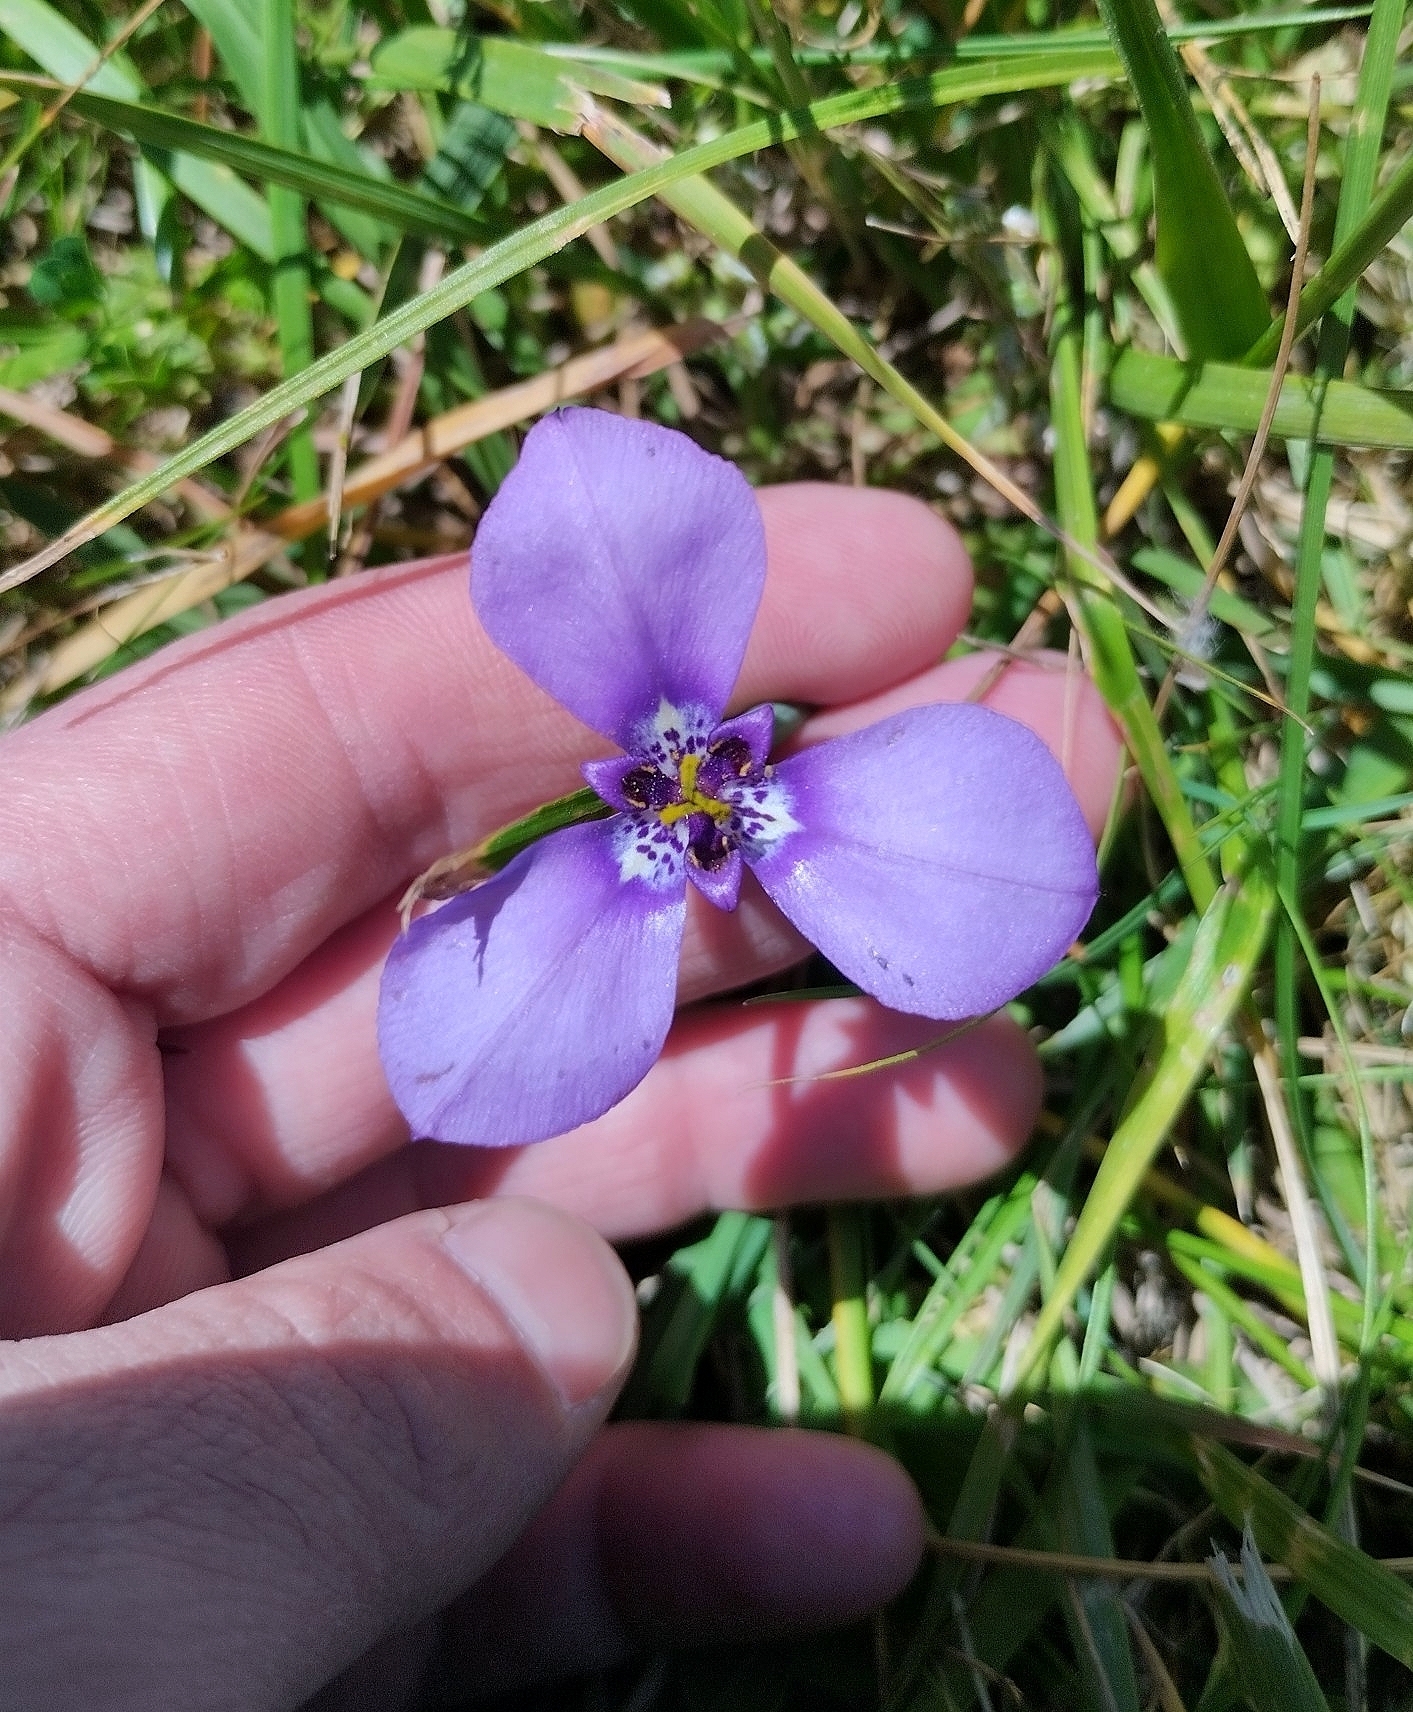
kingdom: Plantae
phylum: Tracheophyta
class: Liliopsida
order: Asparagales
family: Iridaceae
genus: Herbertia
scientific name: Herbertia lahue
